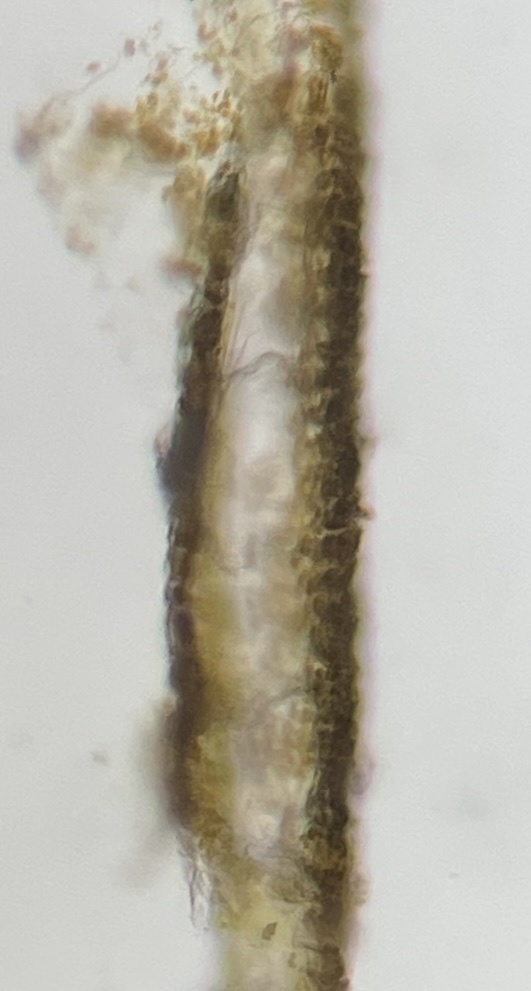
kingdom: Chromista
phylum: Ochrophyta
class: Phaeophyceae
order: Dictyotales
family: Dictyotaceae
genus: Dictyota
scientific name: Dictyota menstrualis
